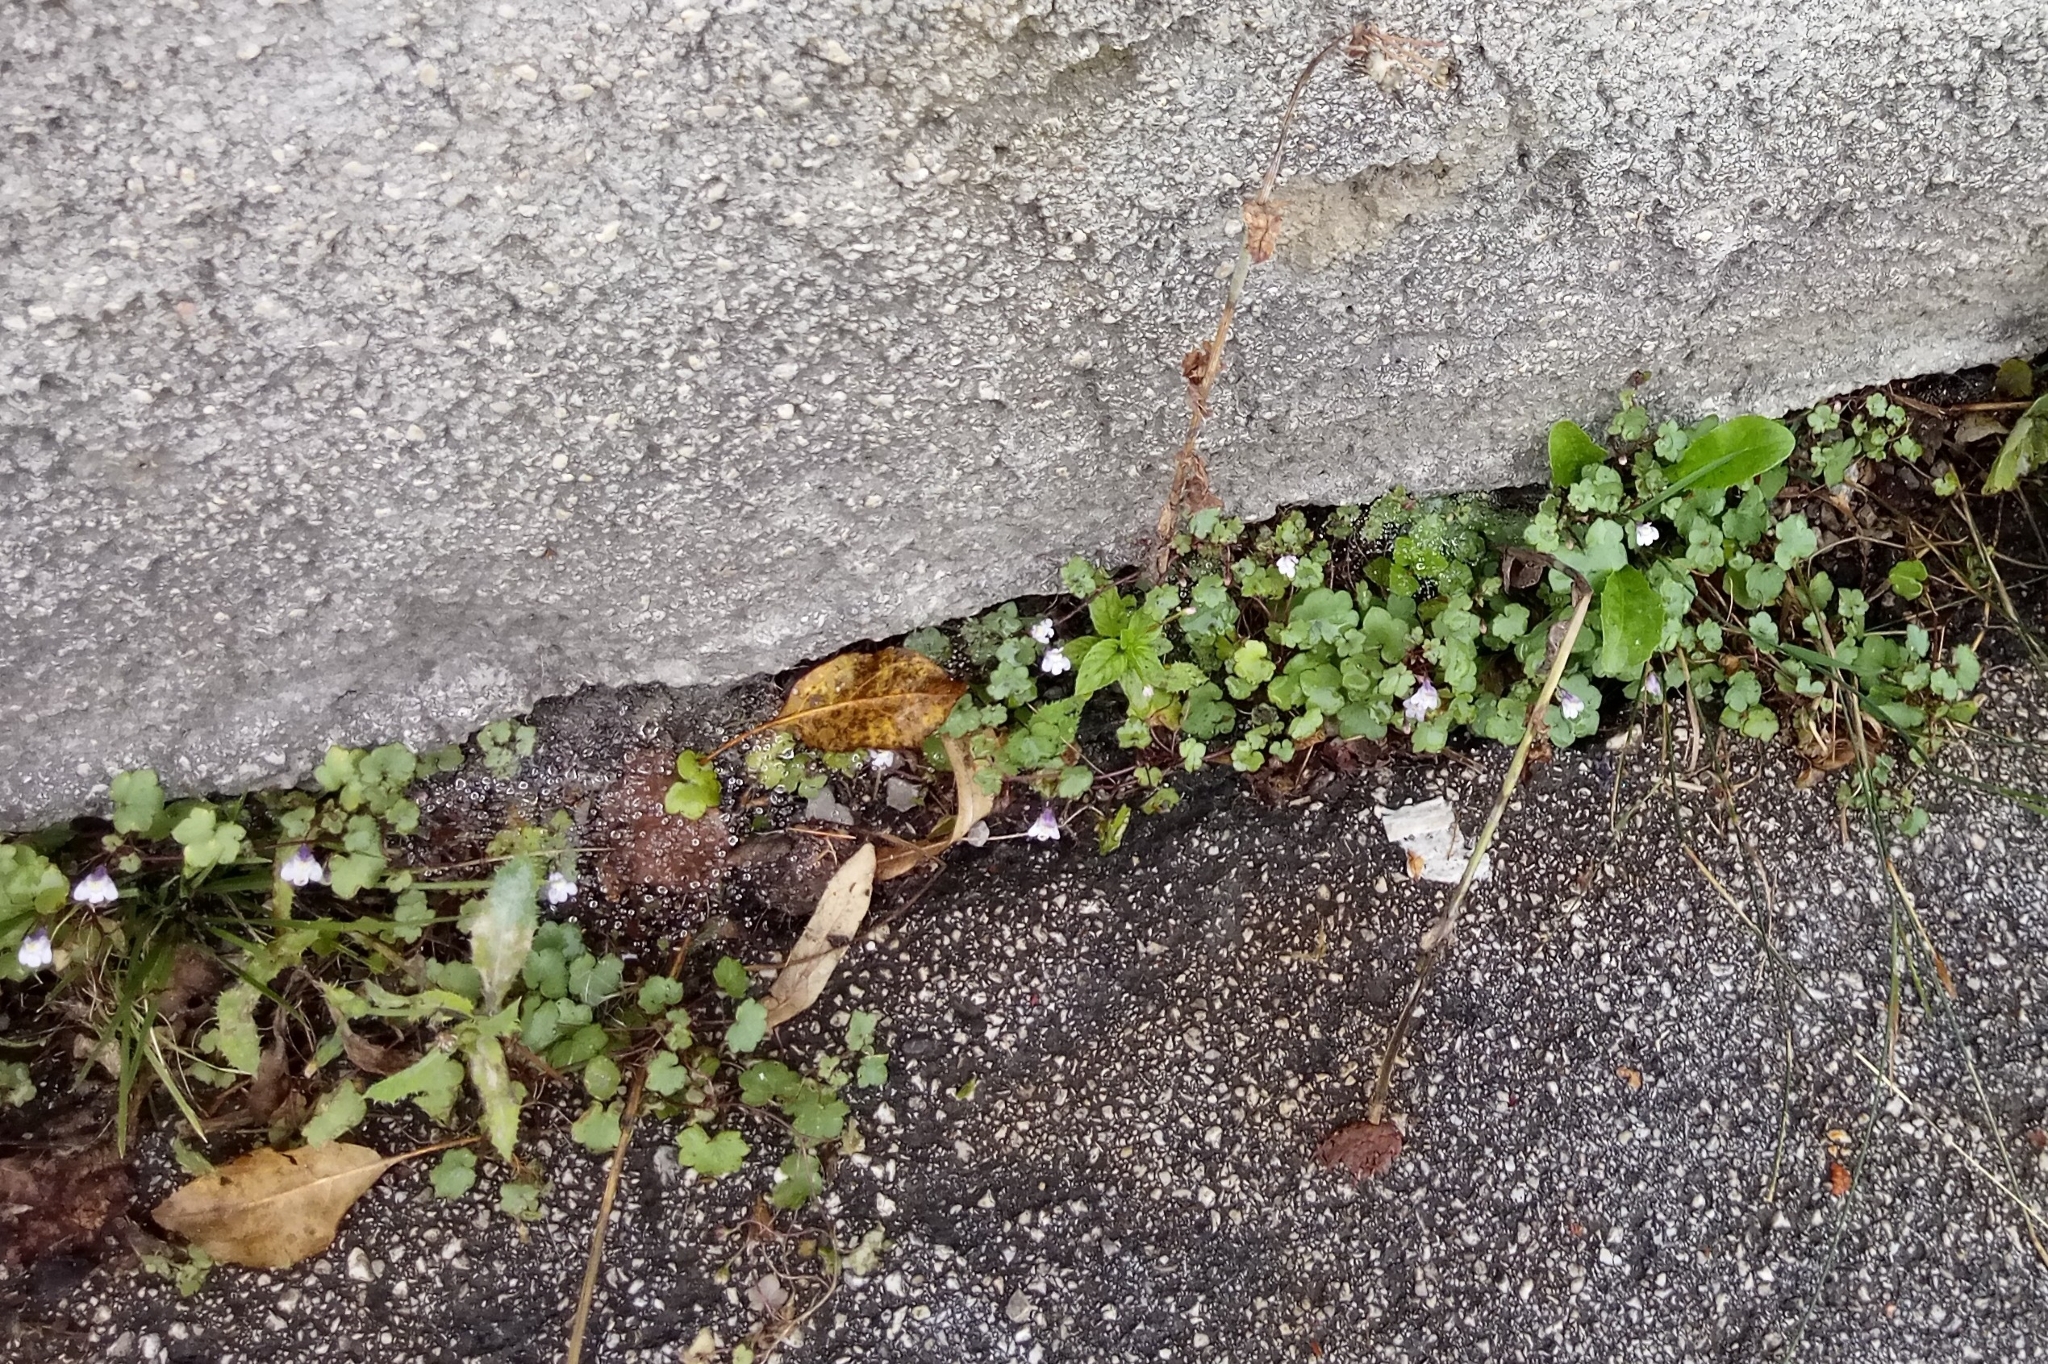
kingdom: Plantae
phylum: Tracheophyta
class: Magnoliopsida
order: Lamiales
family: Plantaginaceae
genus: Cymbalaria
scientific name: Cymbalaria muralis
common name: Ivy-leaved toadflax
